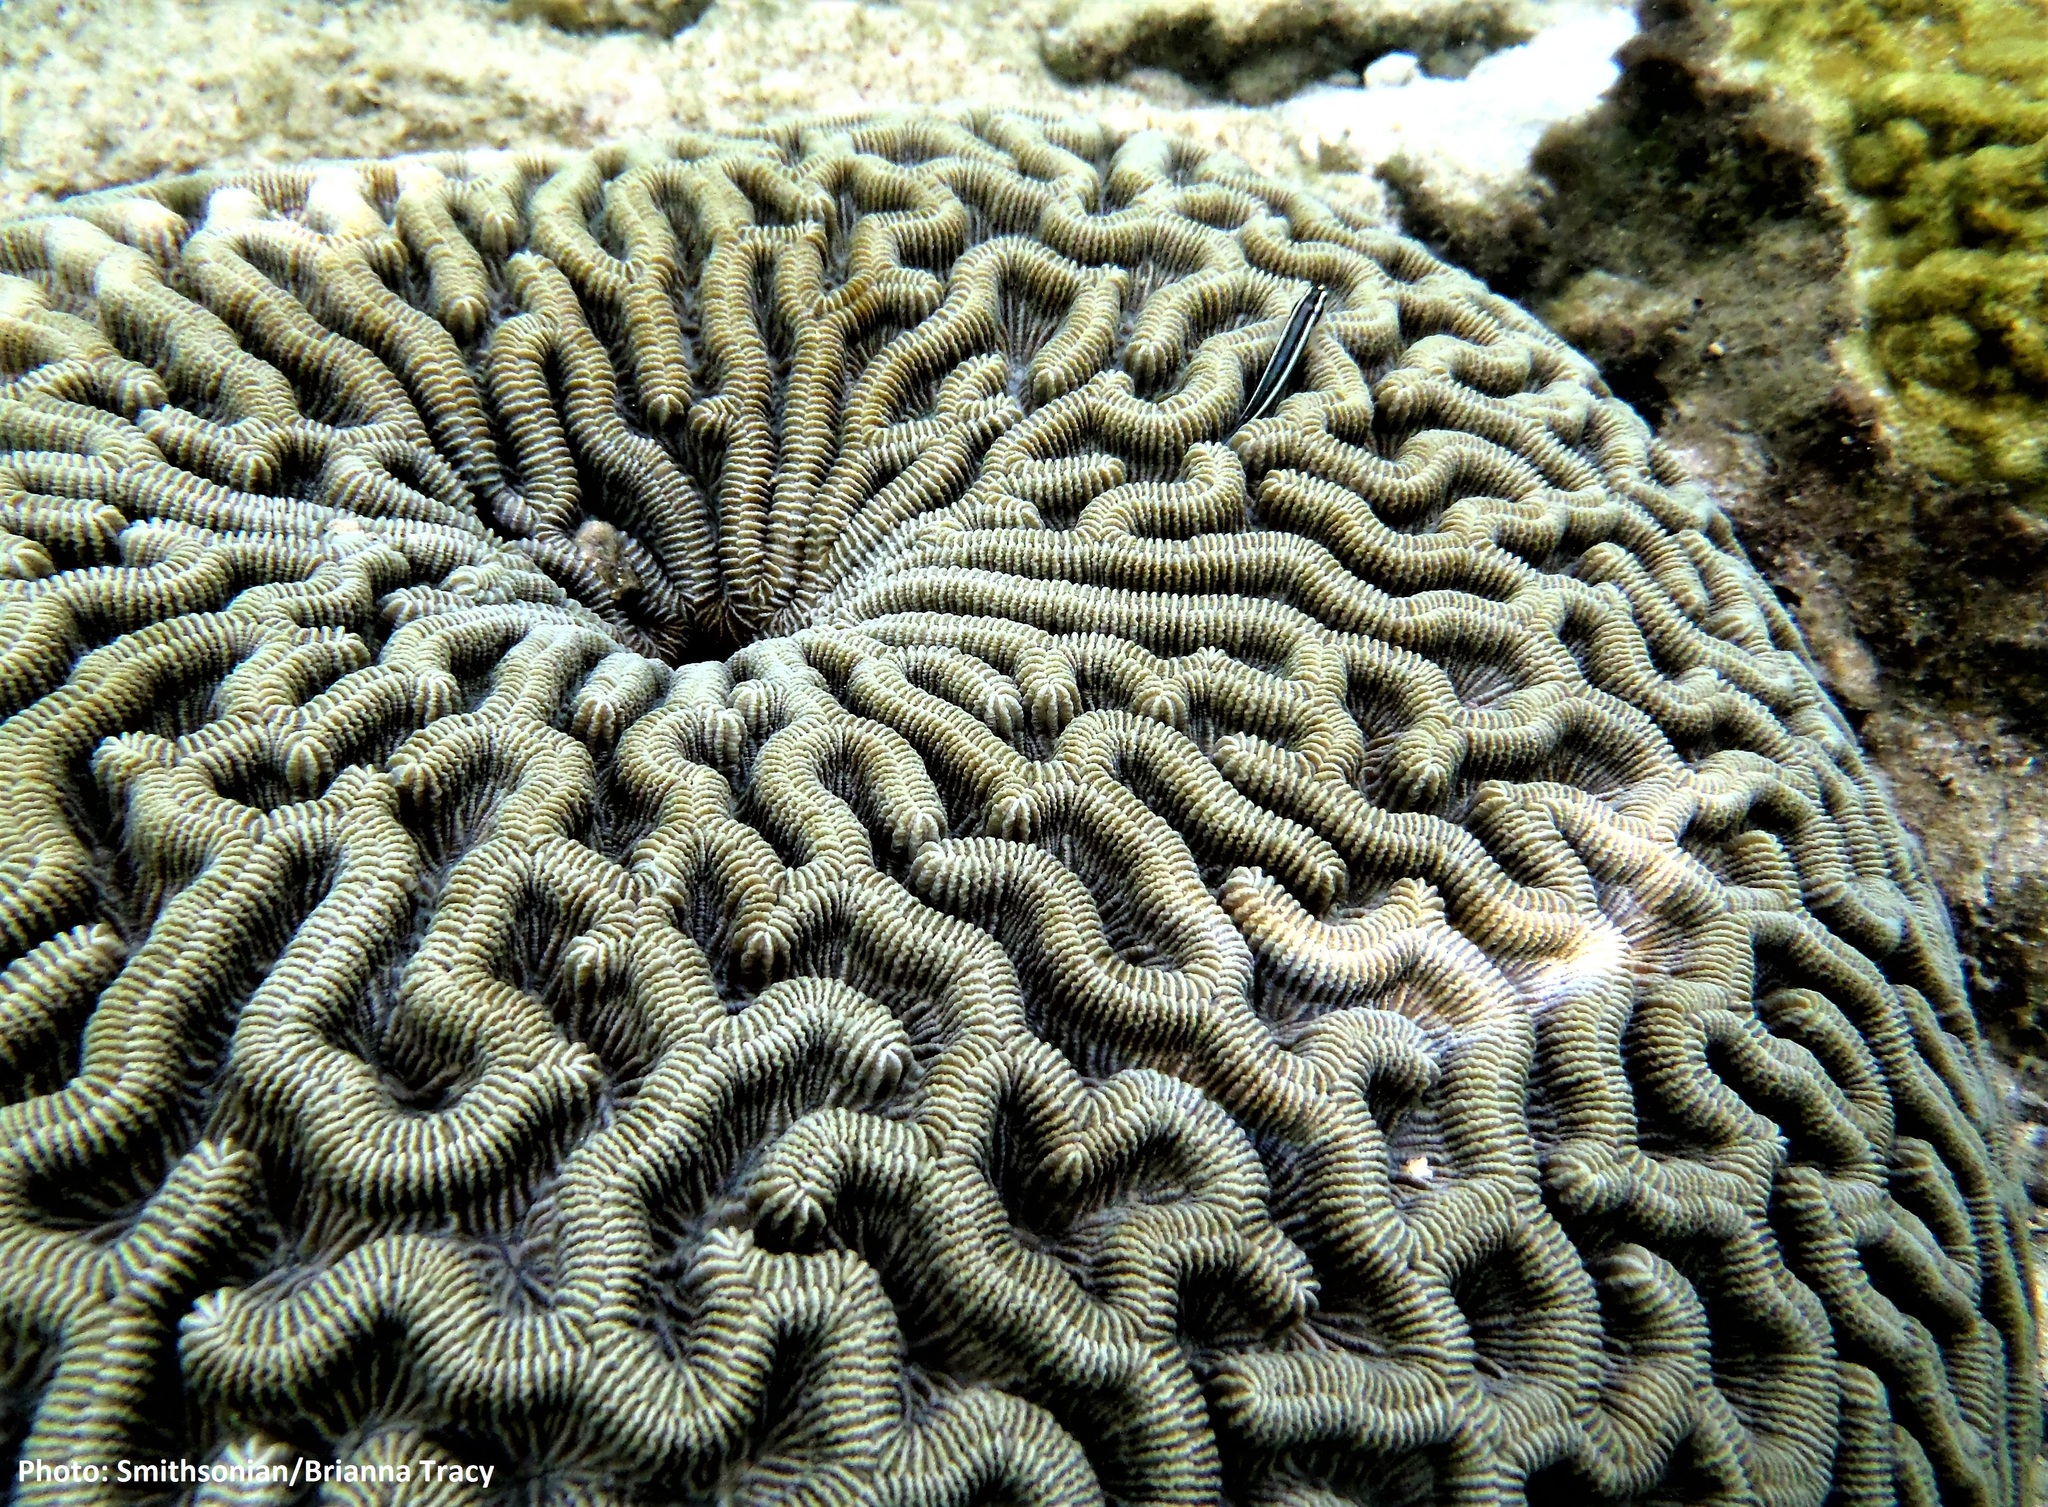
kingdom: Animalia
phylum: Cnidaria
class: Anthozoa
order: Scleractinia
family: Faviidae
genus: Colpophyllia
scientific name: Colpophyllia natans
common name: Boulder brain coral
